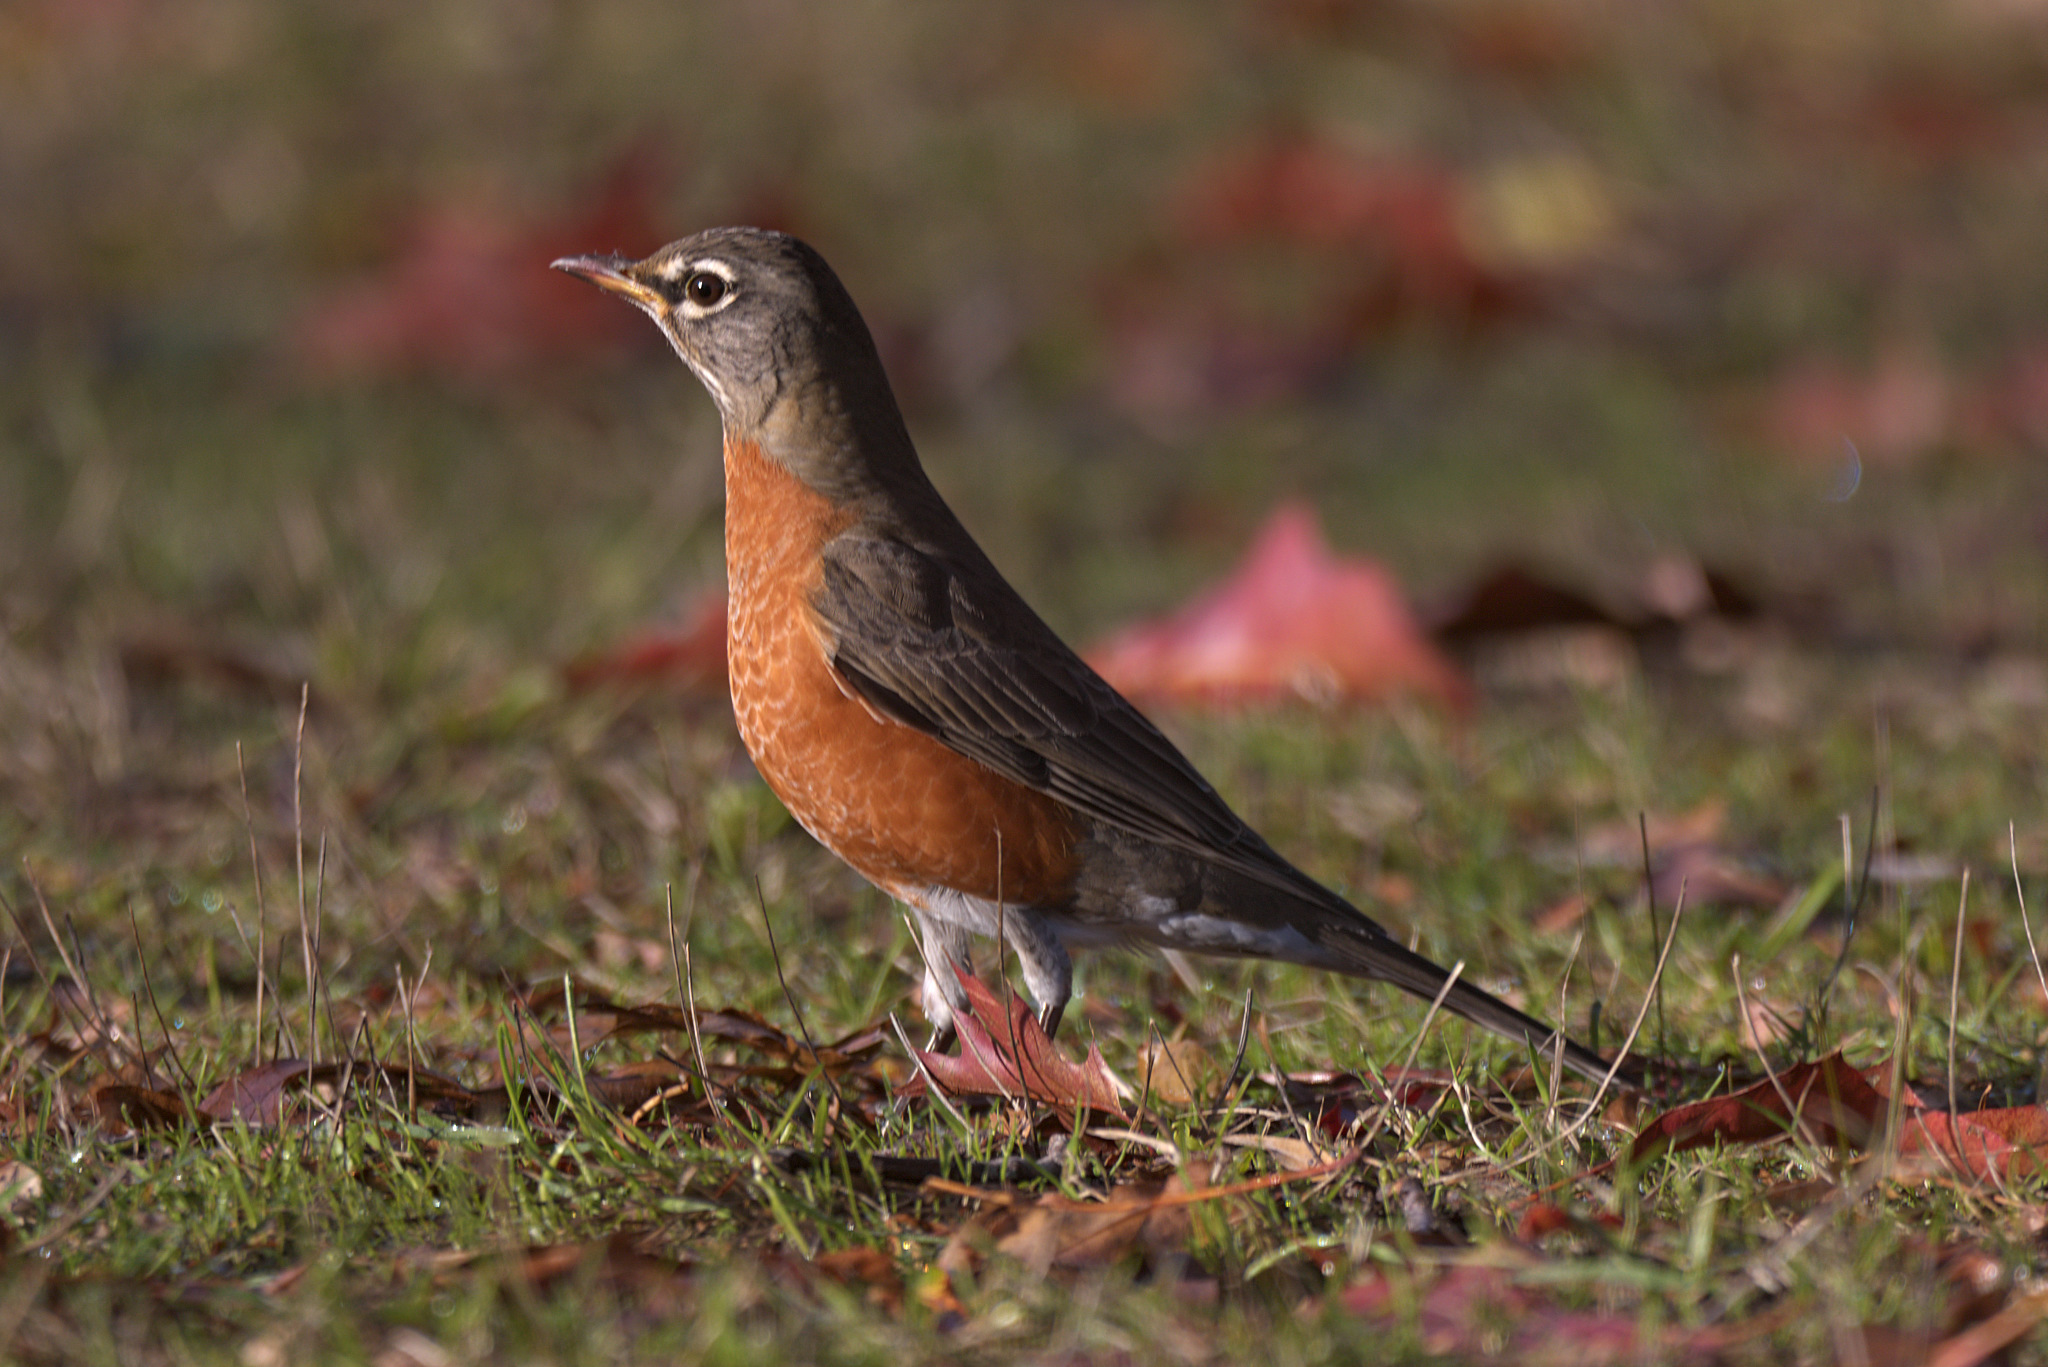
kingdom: Animalia
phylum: Chordata
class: Aves
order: Passeriformes
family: Turdidae
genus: Turdus
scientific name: Turdus migratorius
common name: American robin
